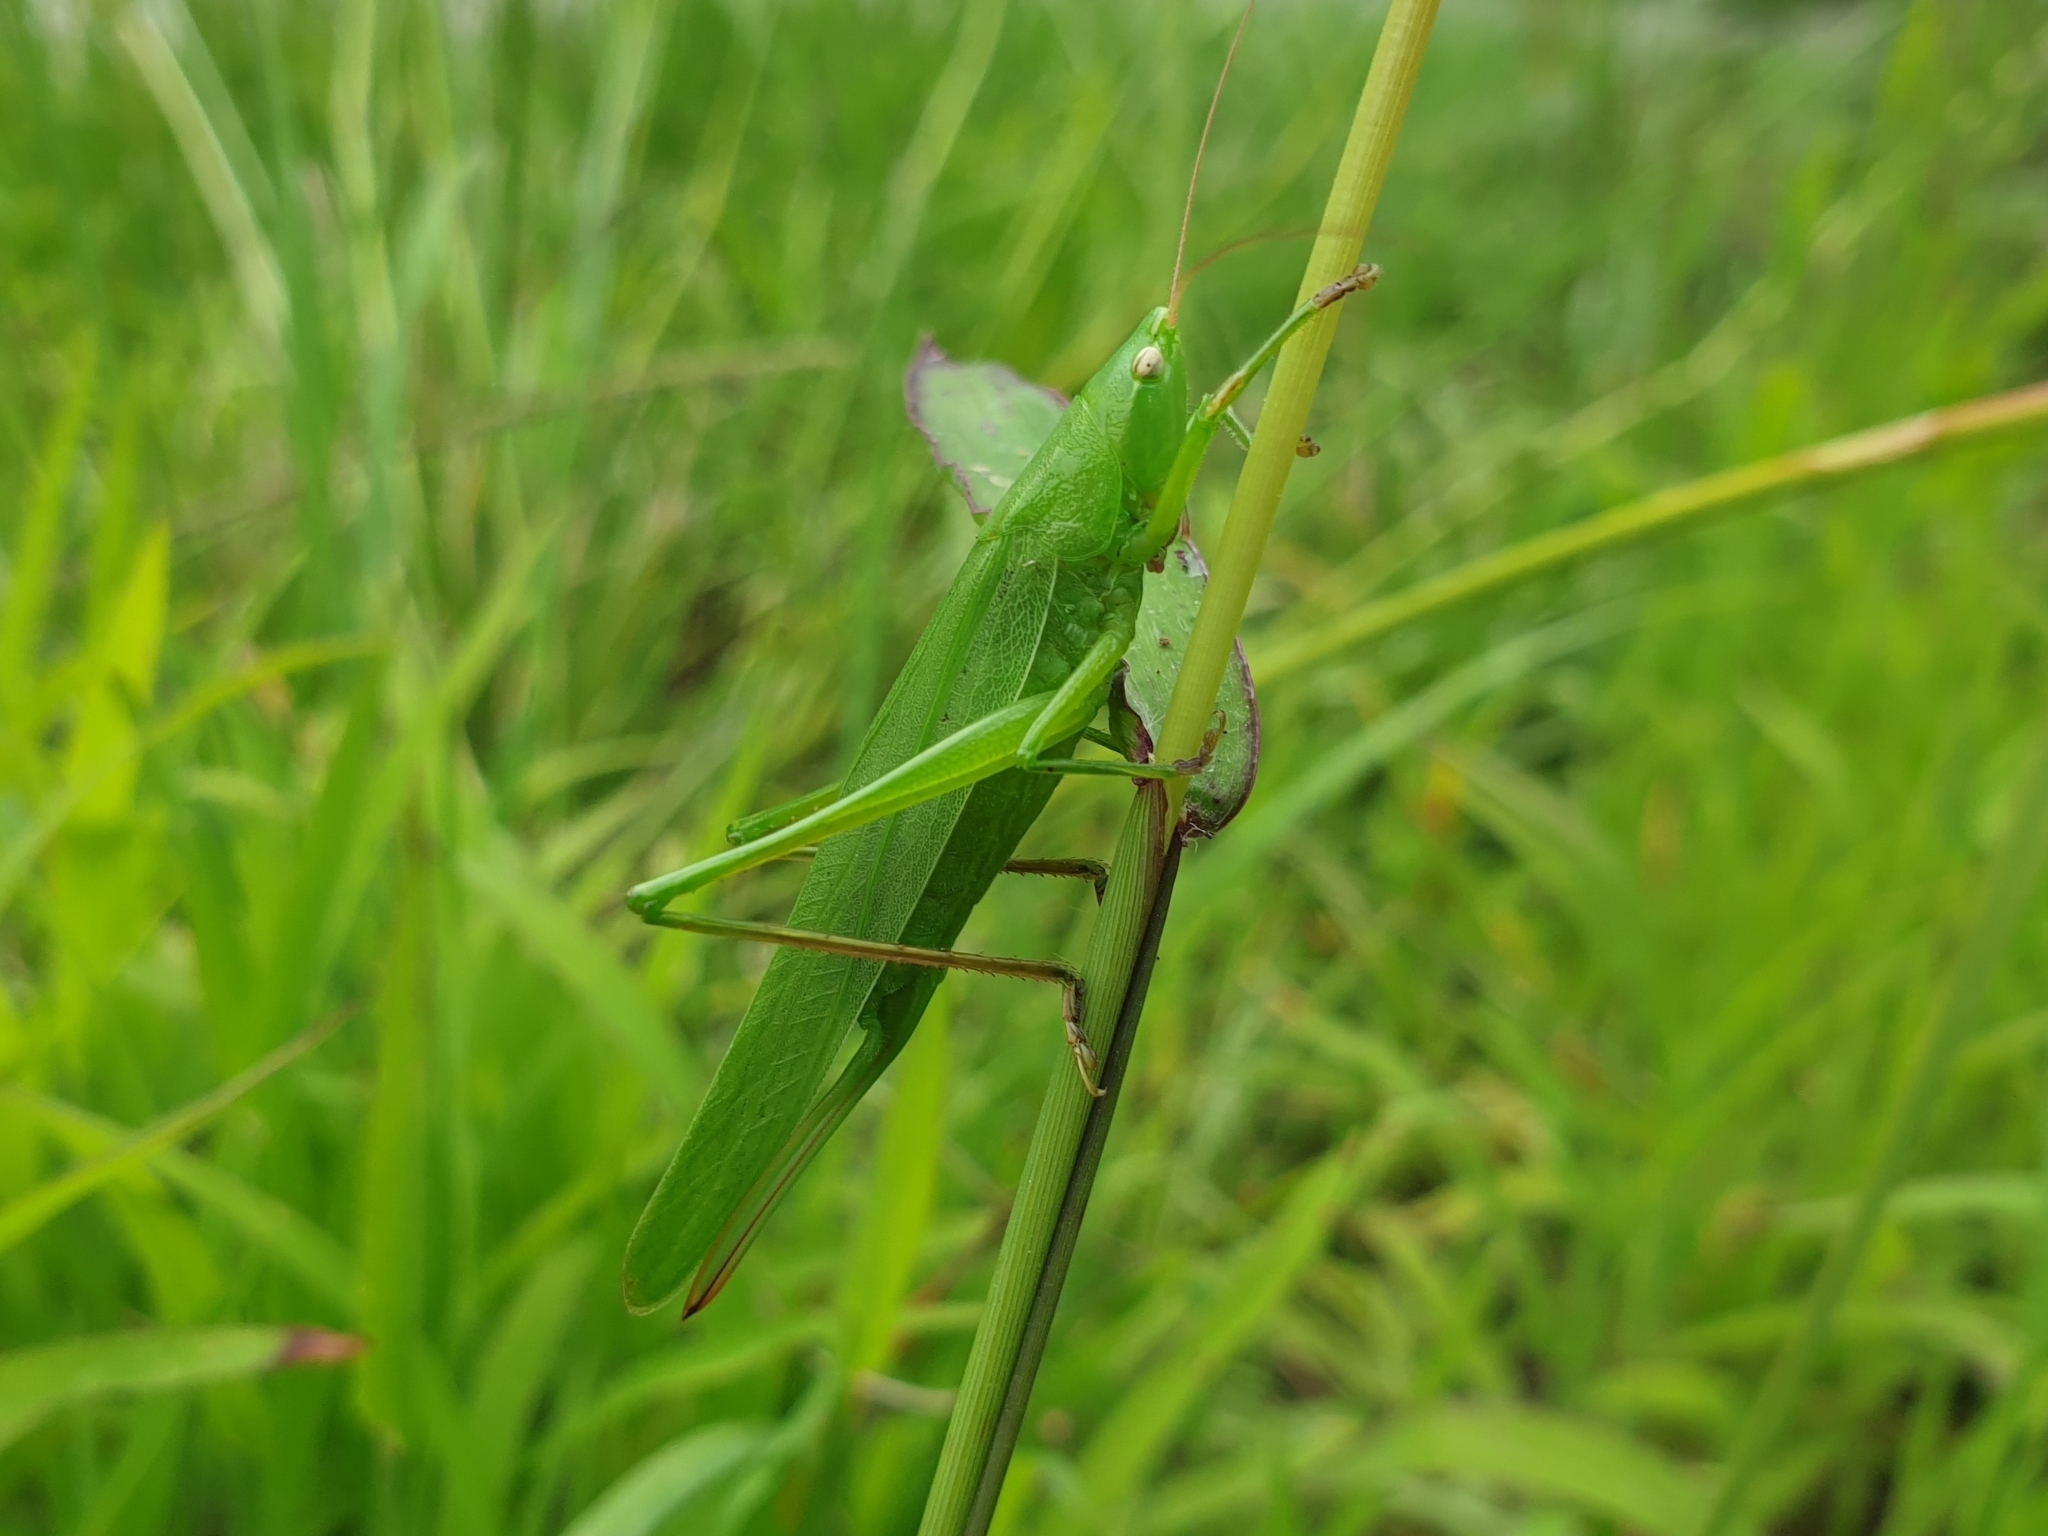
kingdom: Animalia
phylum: Arthropoda
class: Insecta
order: Orthoptera
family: Tettigoniidae
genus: Ruspolia
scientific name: Ruspolia nitidula
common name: Large conehead
